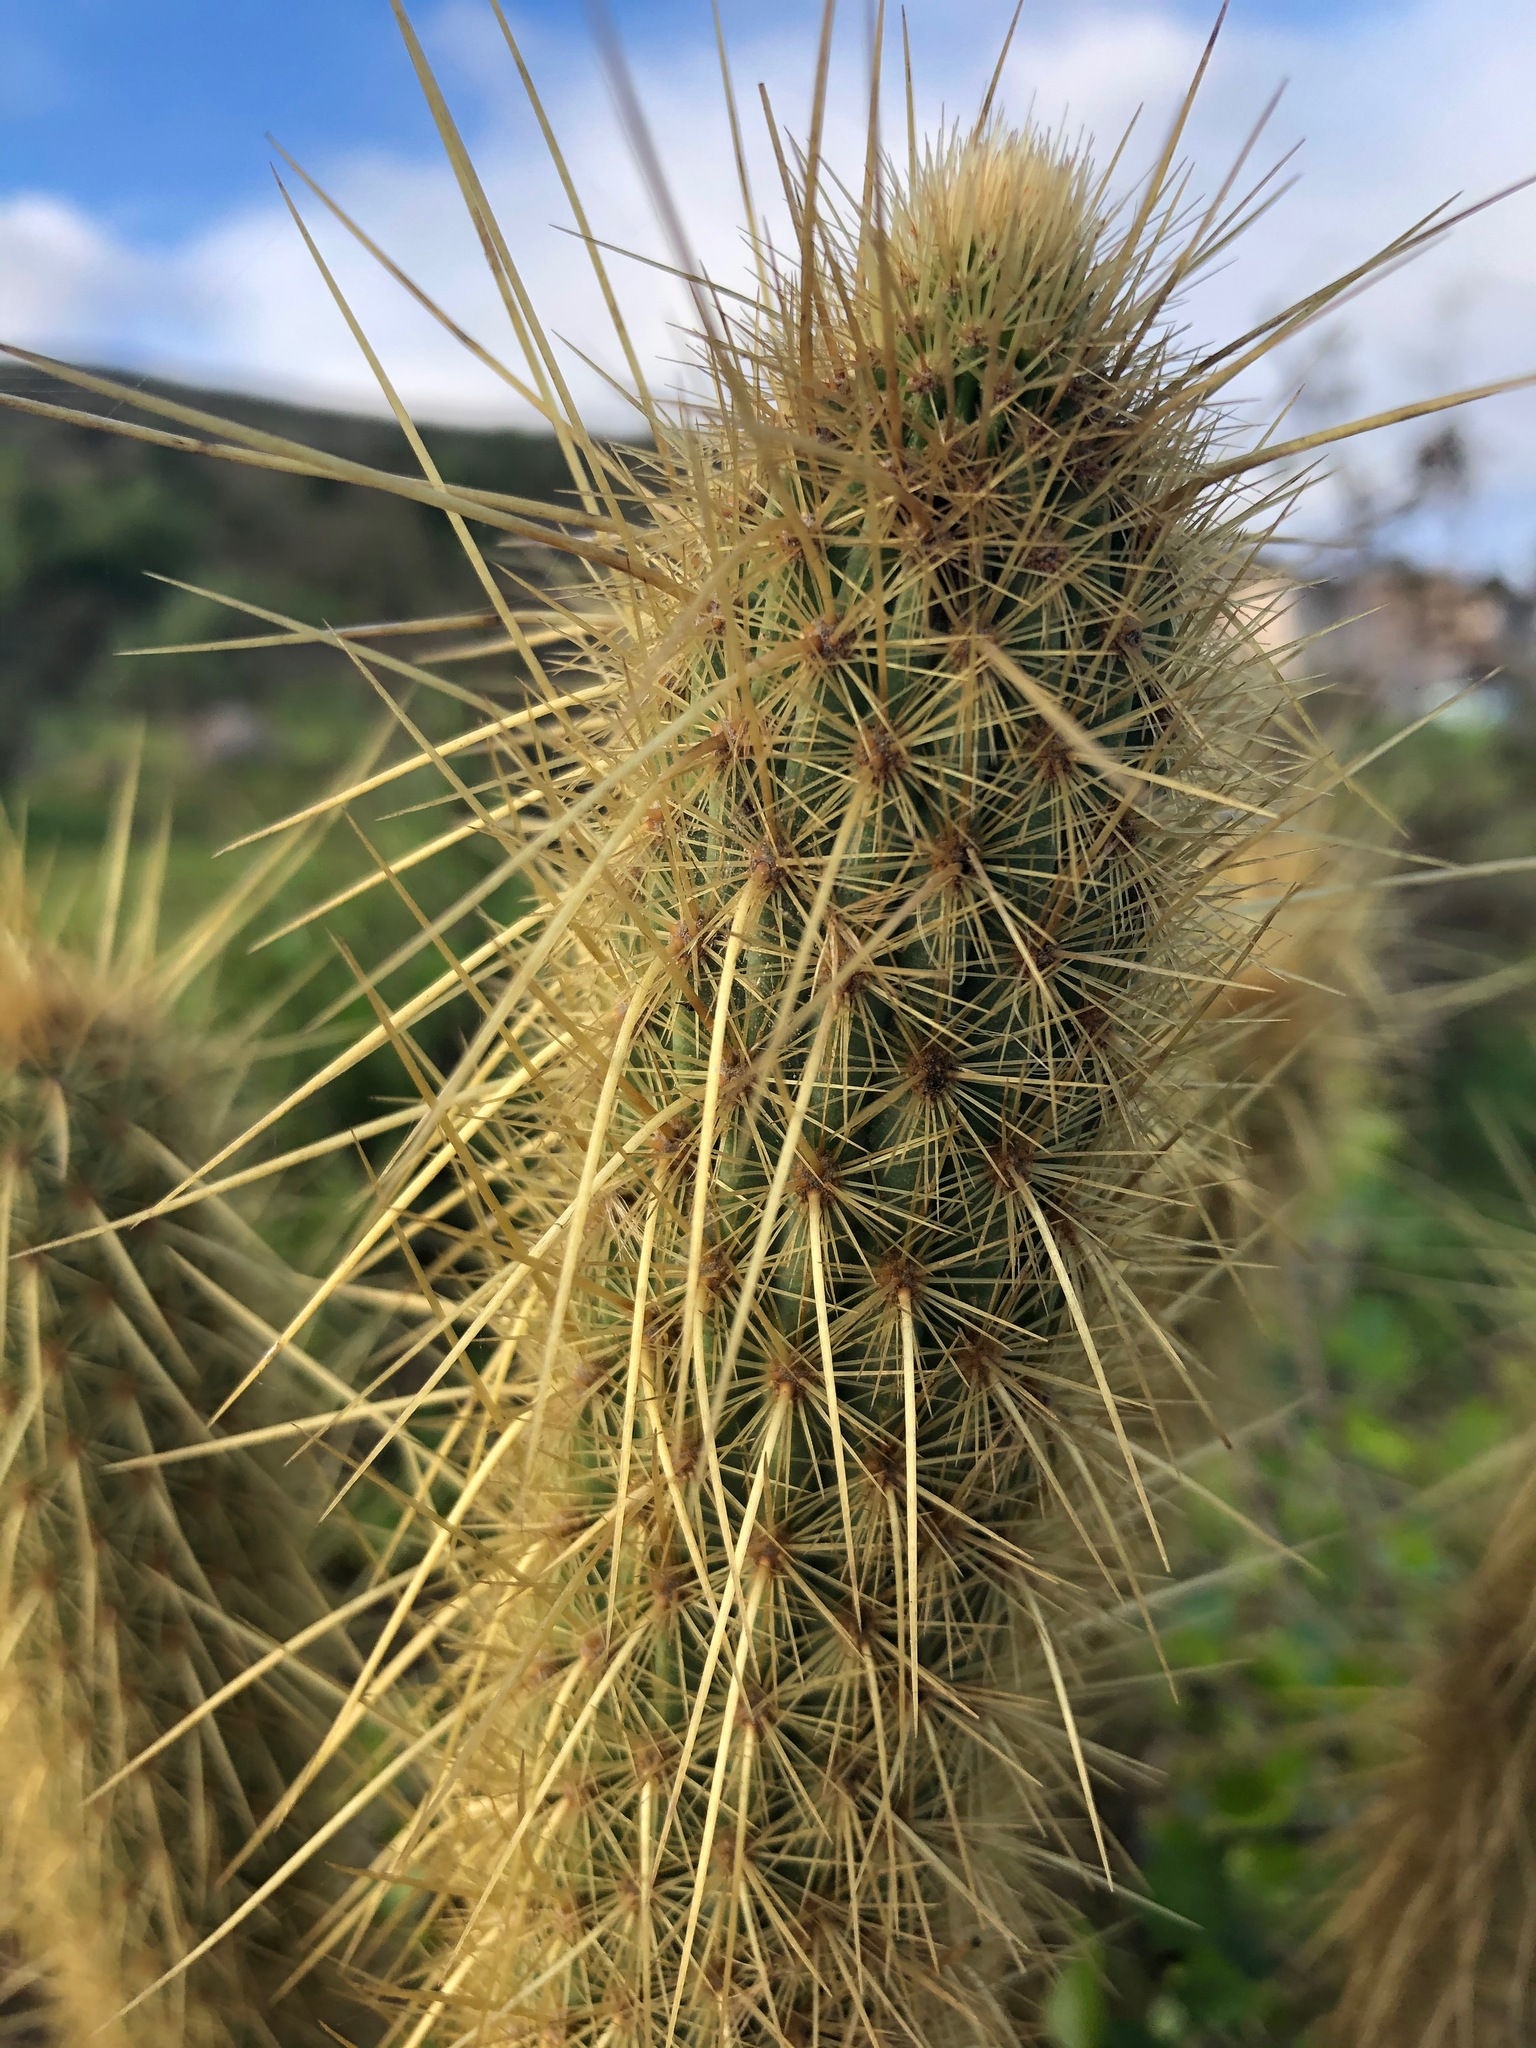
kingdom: Plantae
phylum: Tracheophyta
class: Magnoliopsida
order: Caryophyllales
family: Cactaceae
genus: Bergerocactus
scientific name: Bergerocactus emoryi
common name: Golden snakecactus
